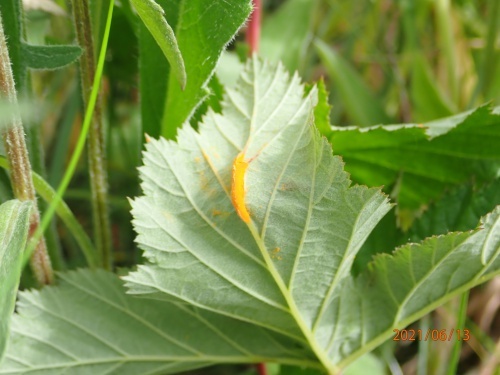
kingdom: Fungi
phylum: Basidiomycota
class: Pucciniomycetes
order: Pucciniales
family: Raveneliaceae
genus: Triphragmium
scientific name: Triphragmium ulmariae
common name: Meadowsweet rust
